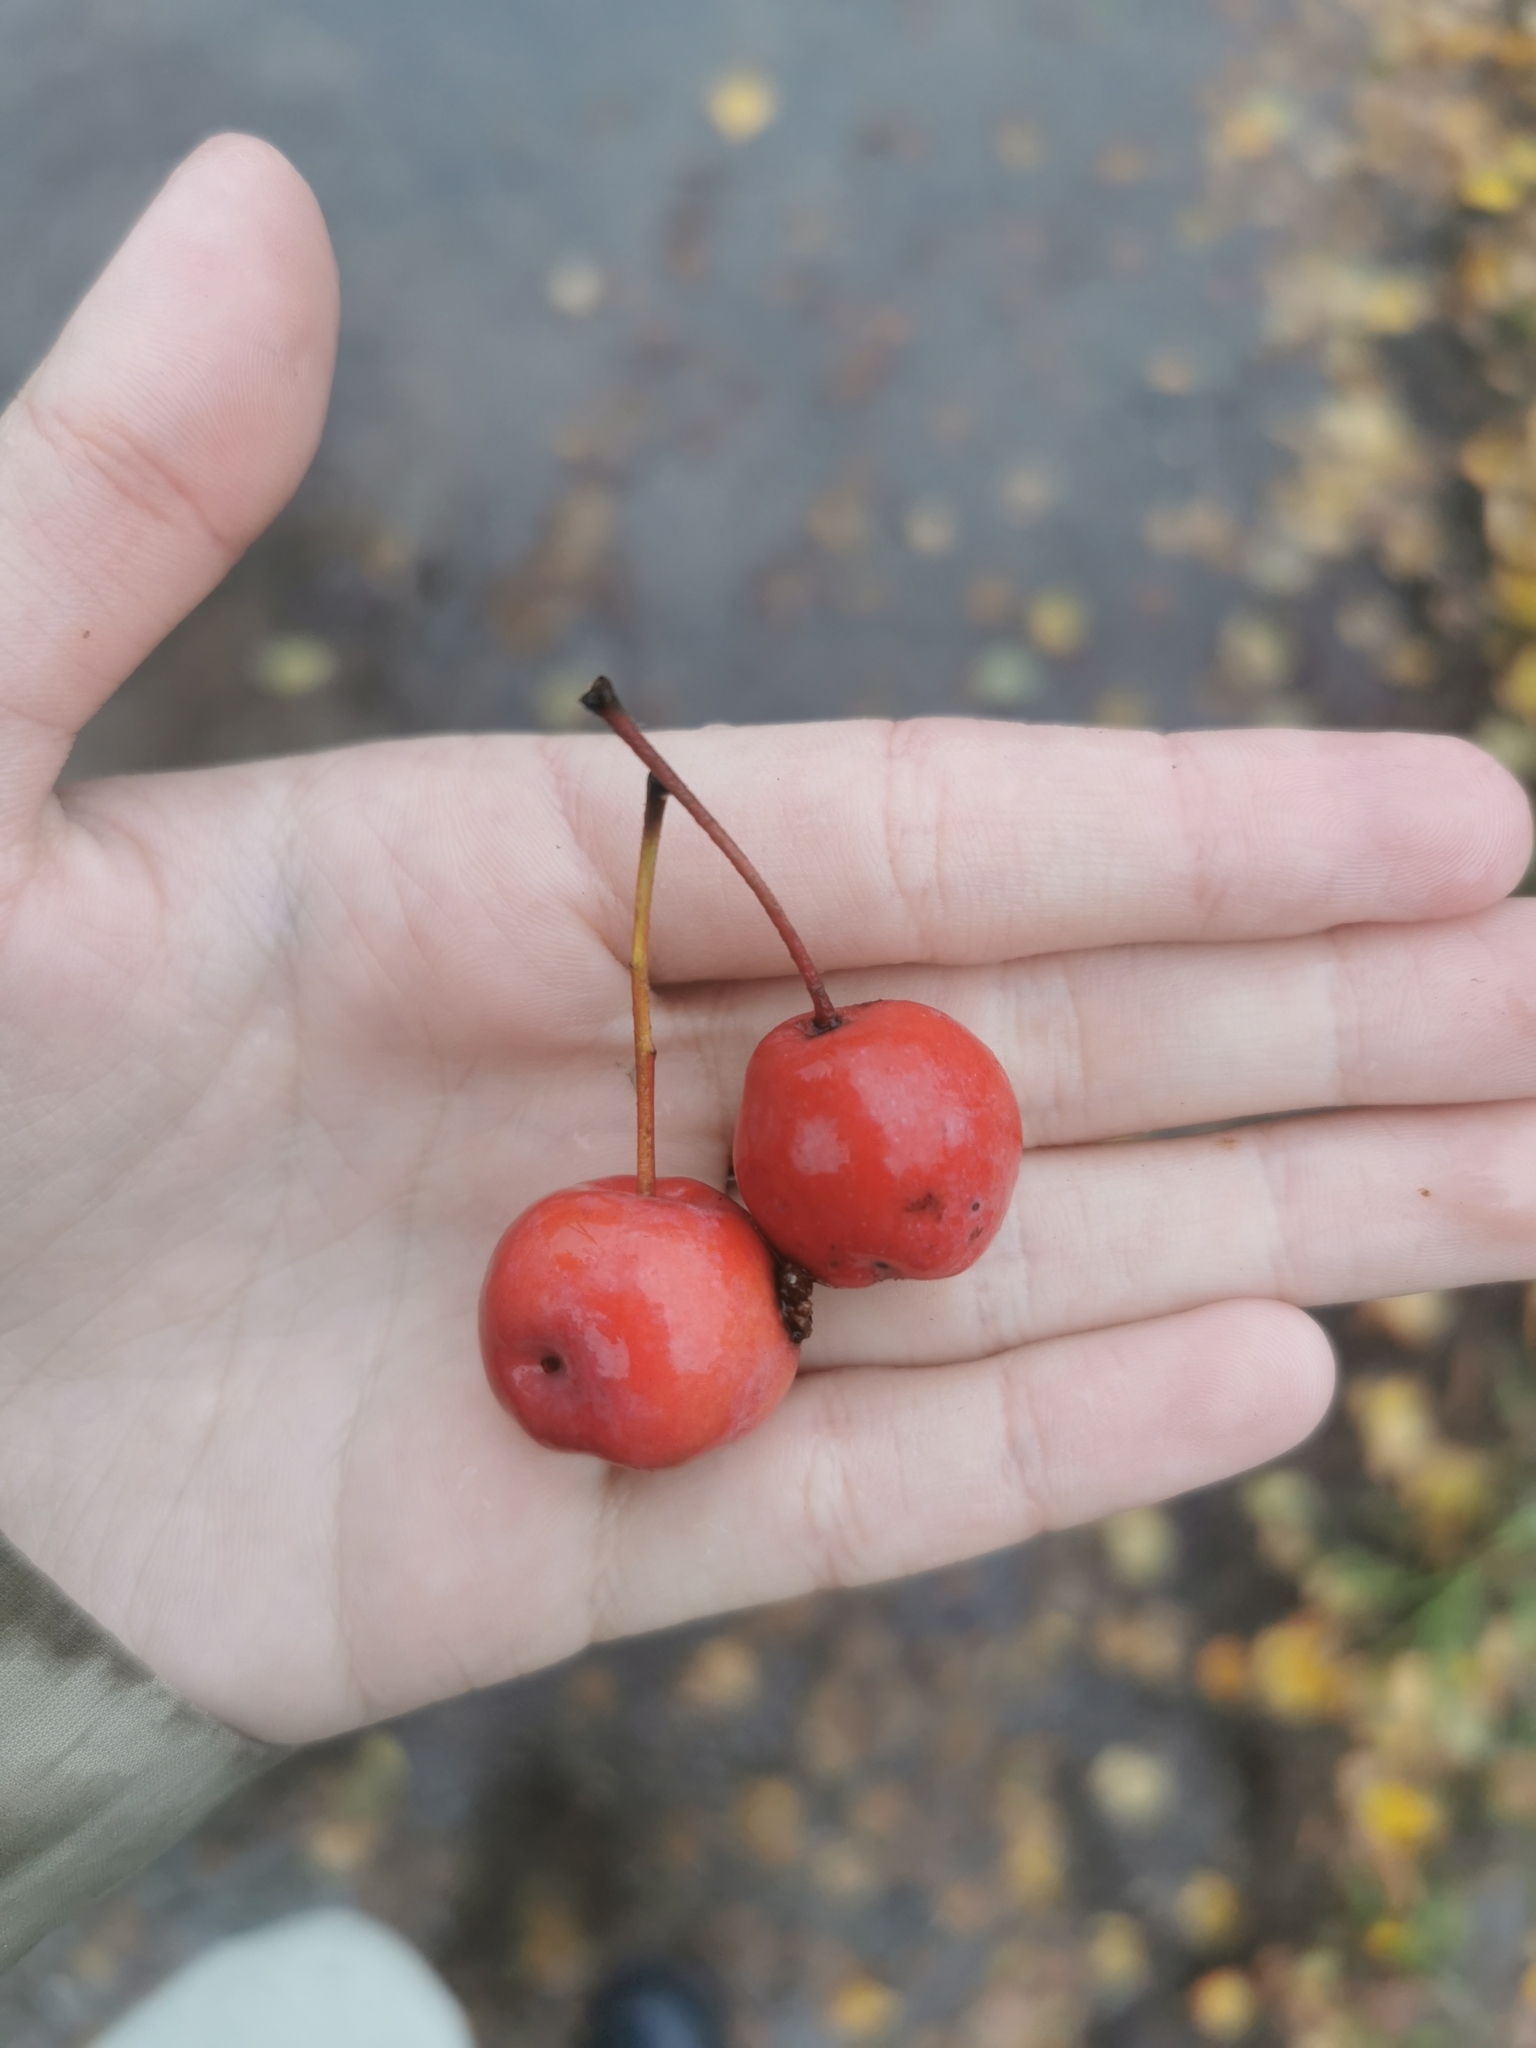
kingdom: Plantae
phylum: Tracheophyta
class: Magnoliopsida
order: Rosales
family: Rosaceae
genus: Malus
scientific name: Malus baccata
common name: Siberian crab
